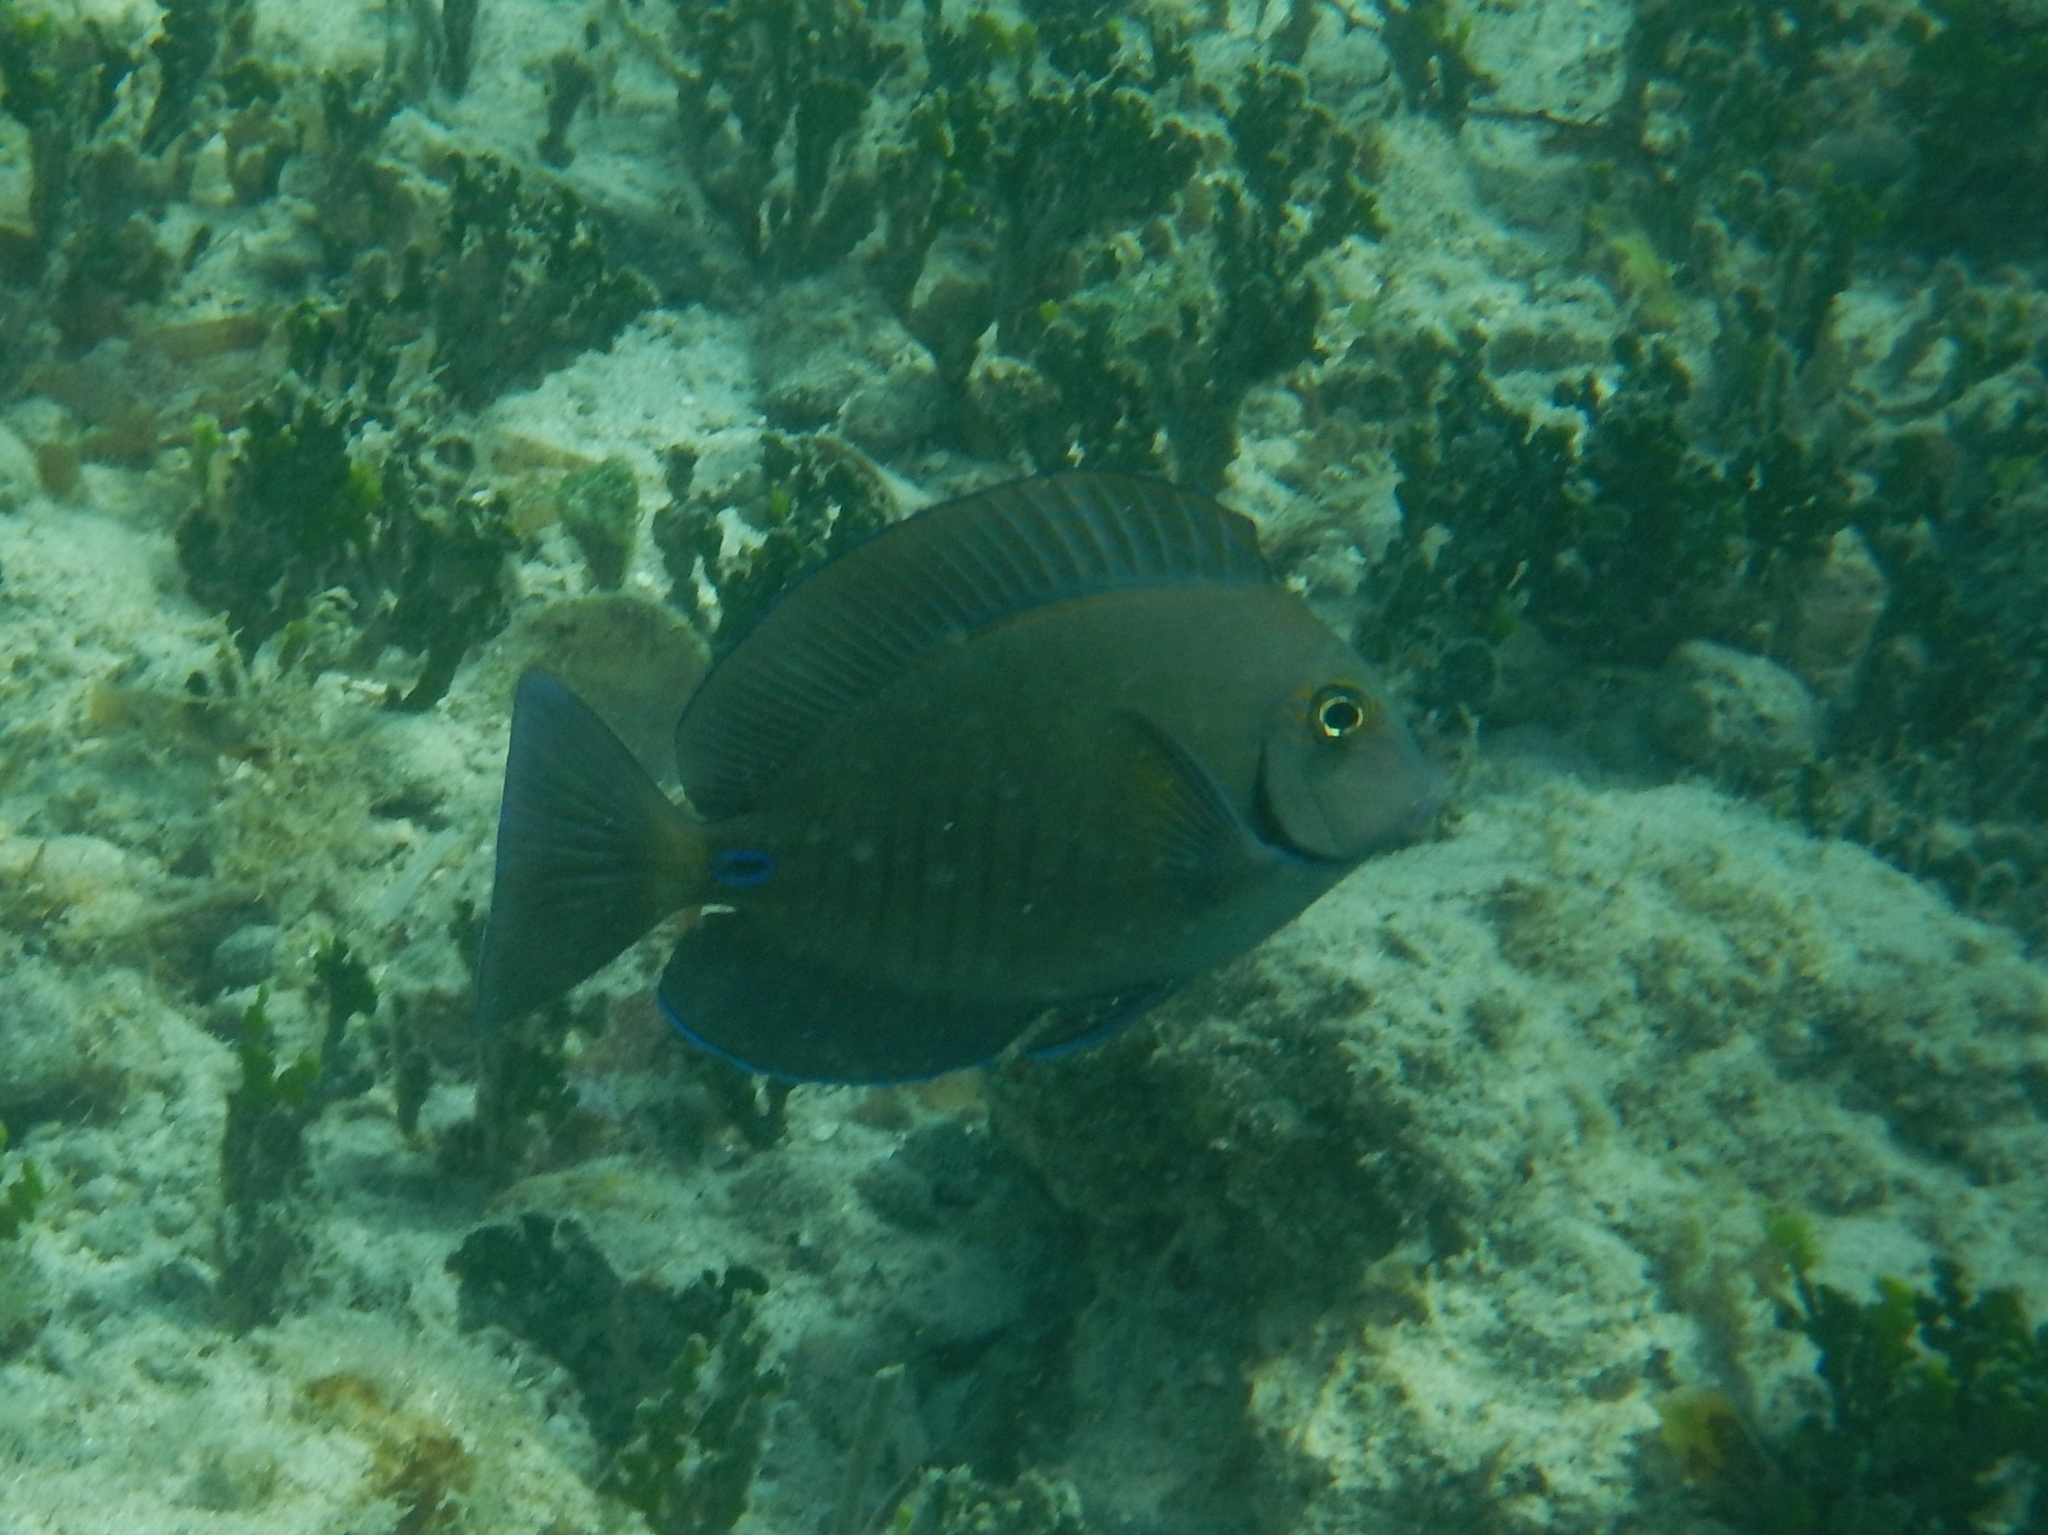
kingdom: Animalia
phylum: Chordata
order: Perciformes
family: Acanthuridae
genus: Acanthurus
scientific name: Acanthurus chirurgus
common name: Doctorfish
